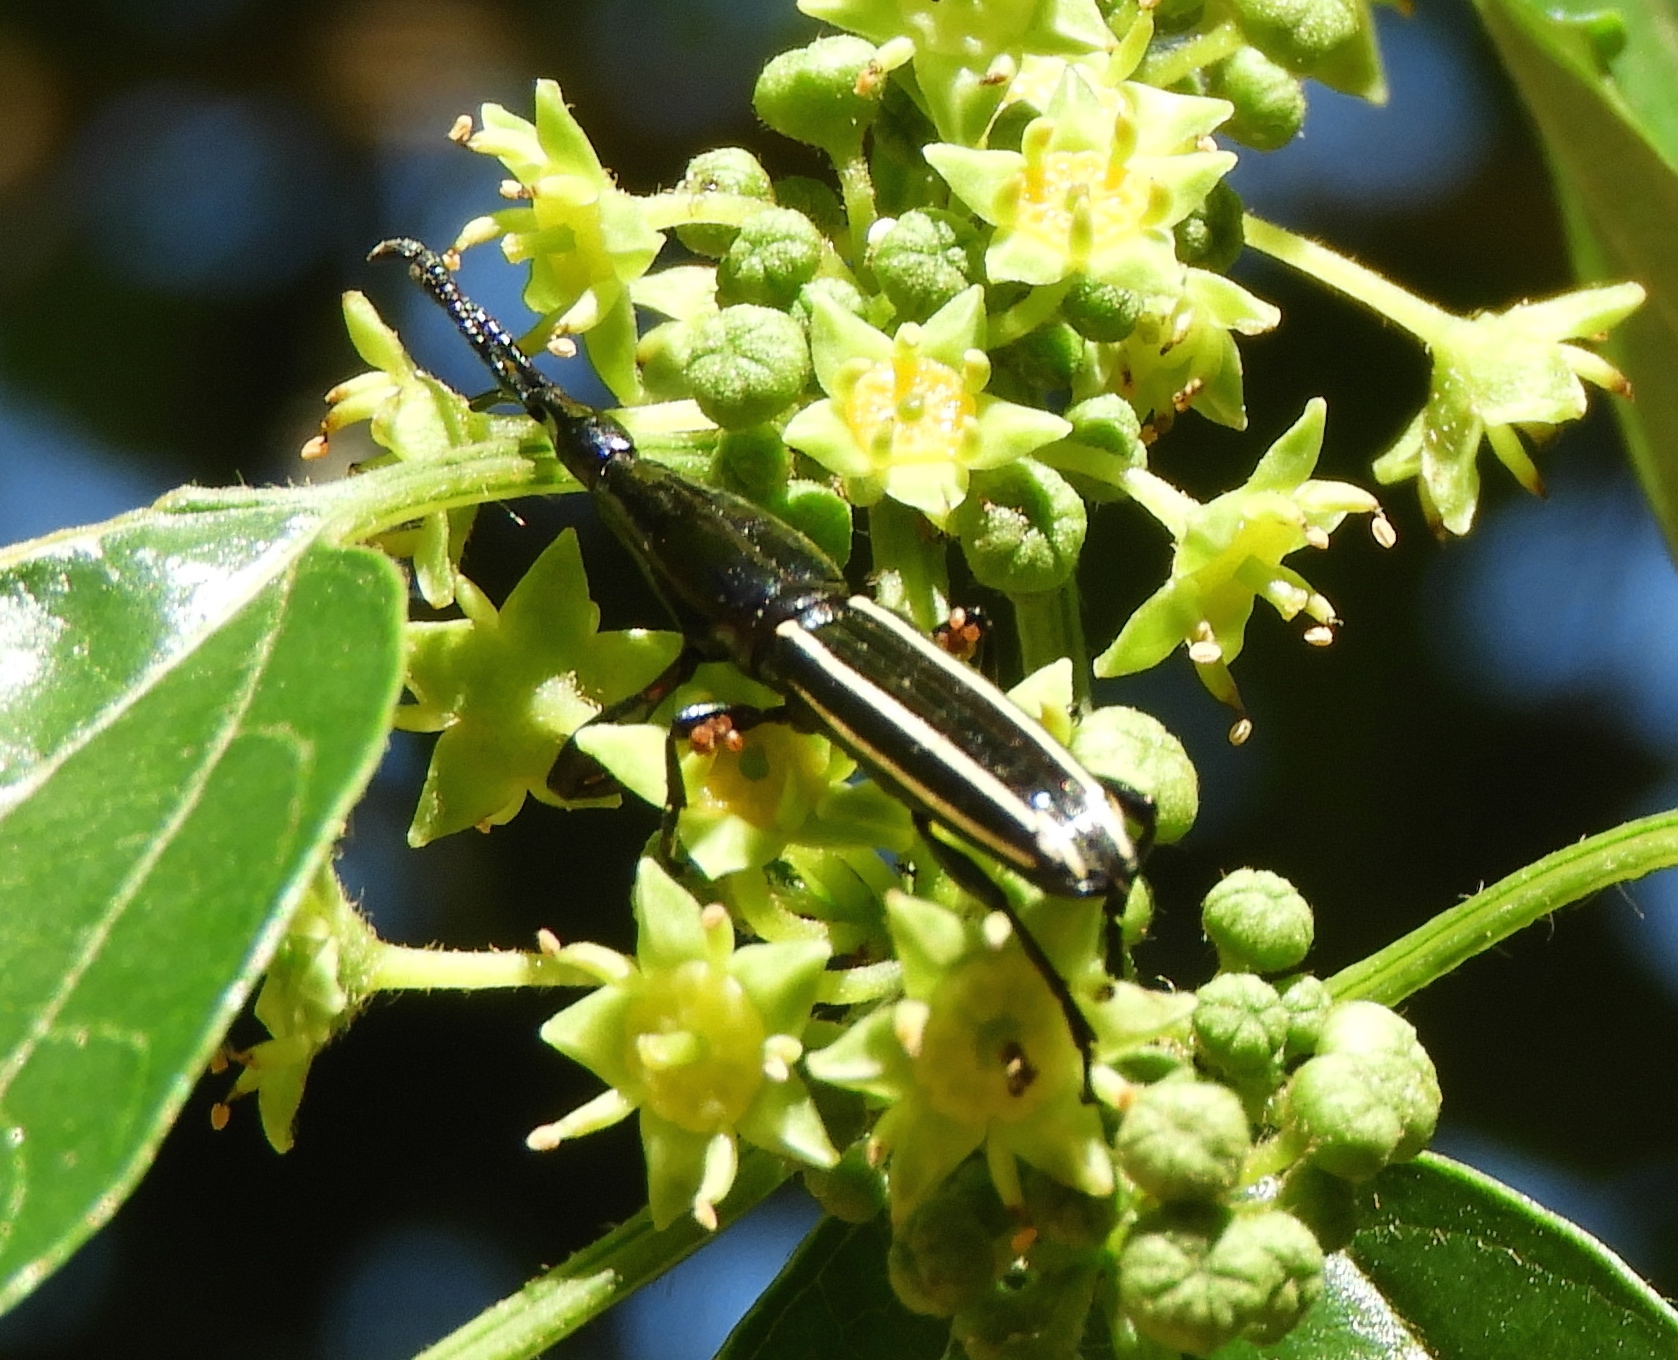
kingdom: Animalia
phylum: Arthropoda
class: Insecta
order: Coleoptera
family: Brentidae
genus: Brentus
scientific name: Brentus anchorago
